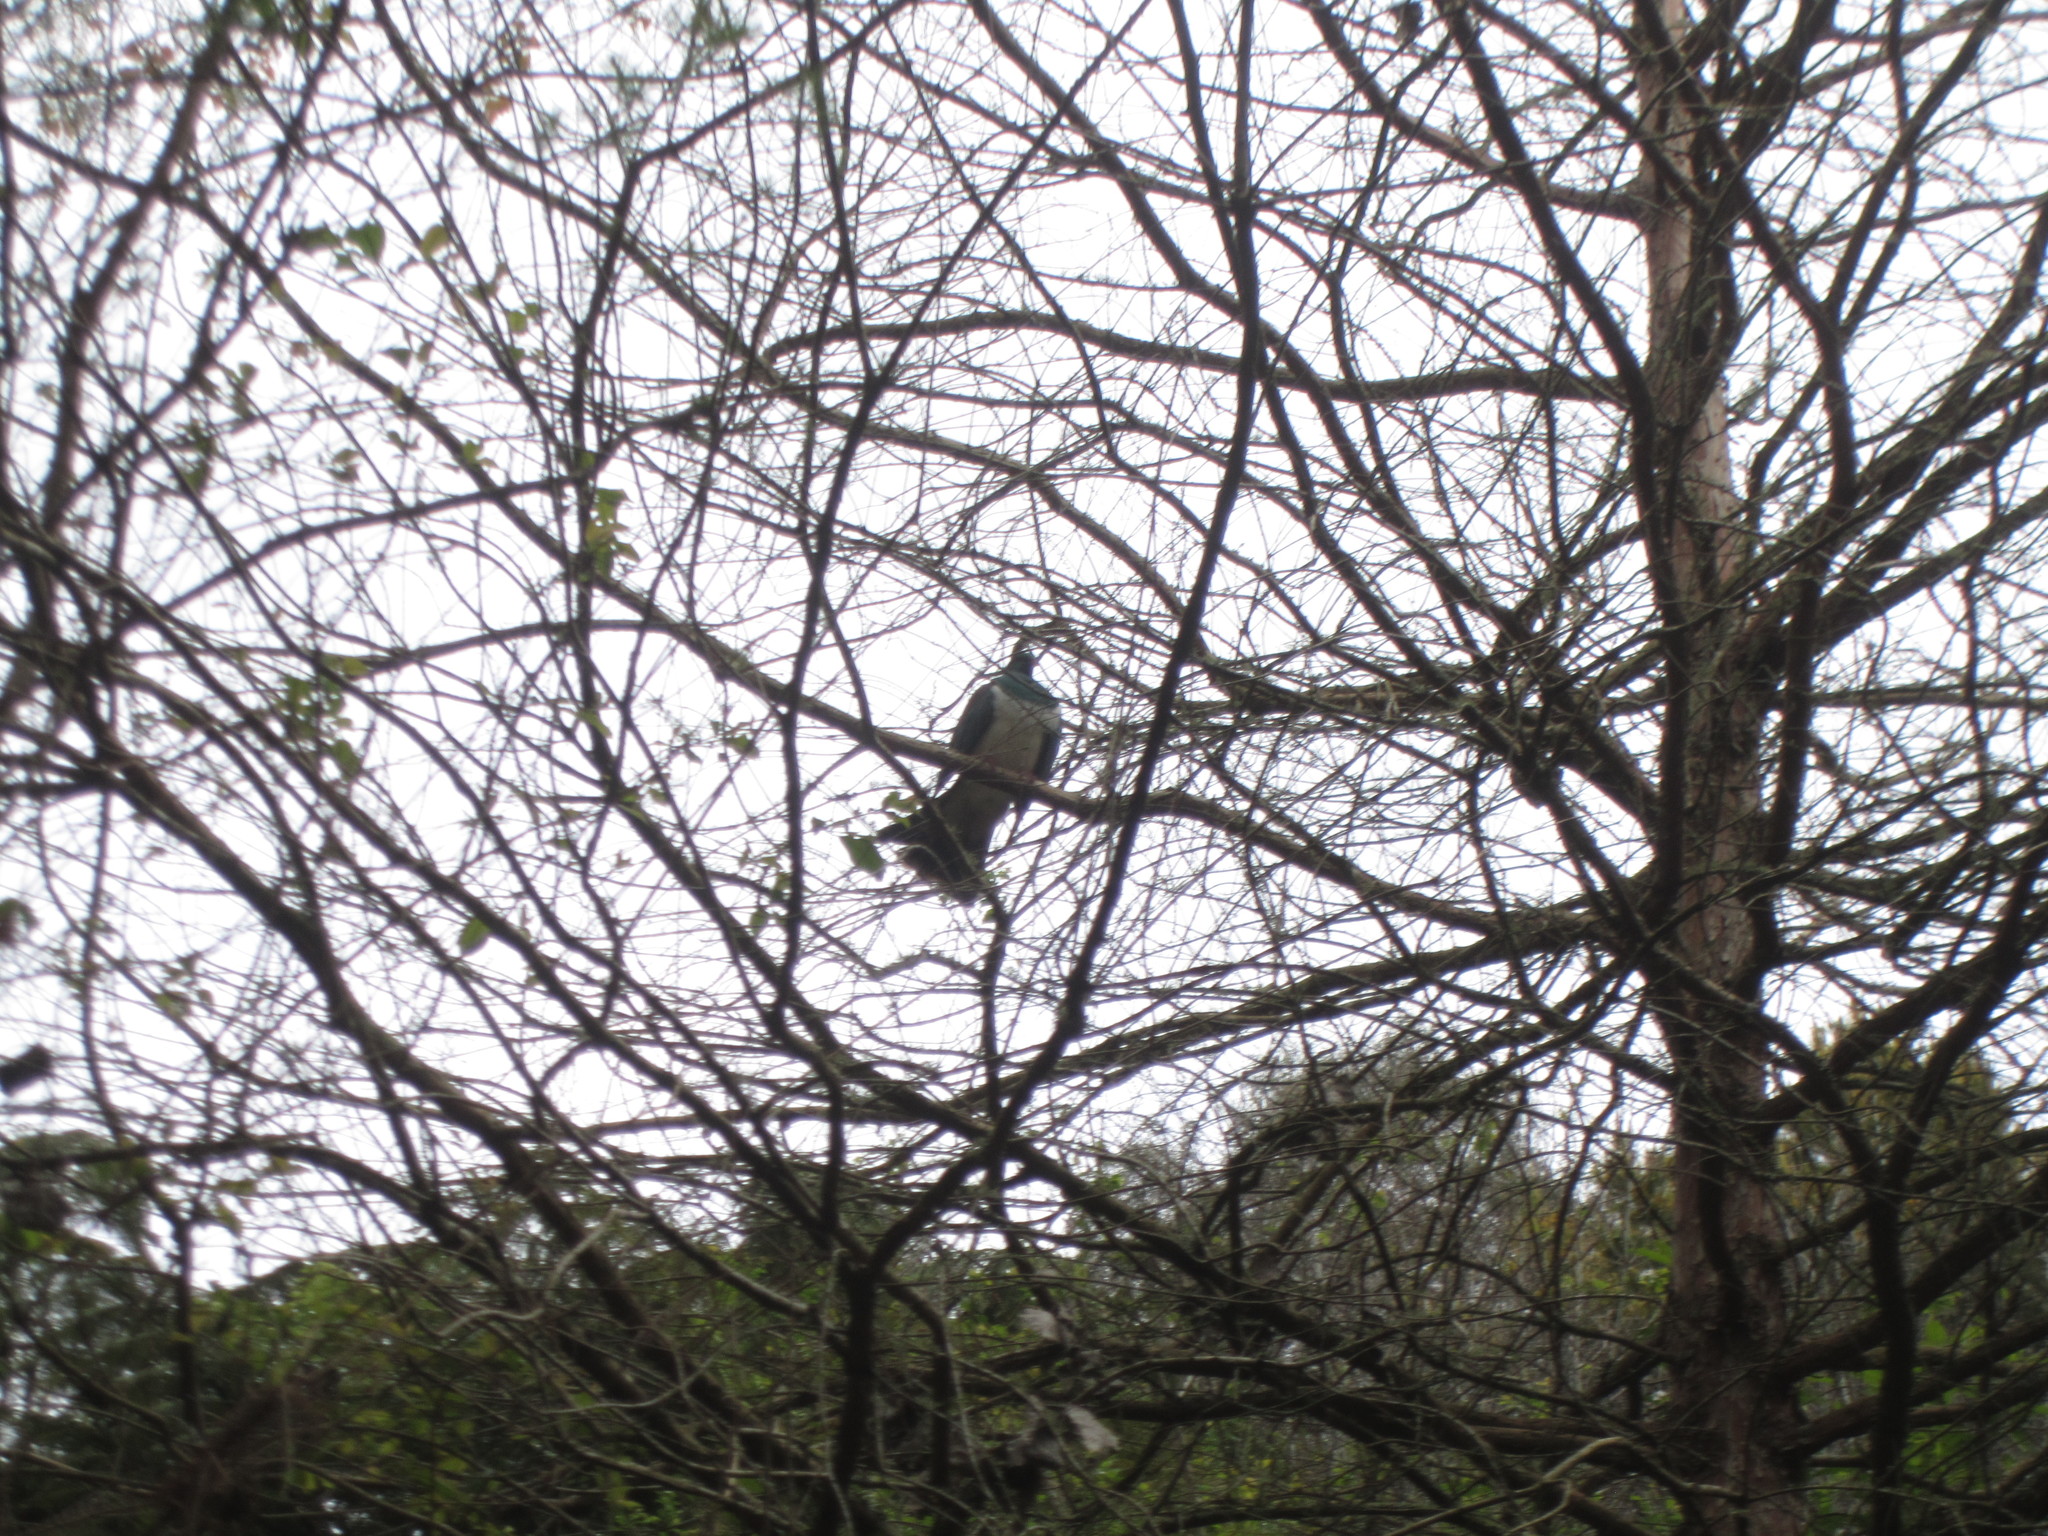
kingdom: Animalia
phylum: Chordata
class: Aves
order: Columbiformes
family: Columbidae
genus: Hemiphaga
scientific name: Hemiphaga novaeseelandiae
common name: New zealand pigeon
